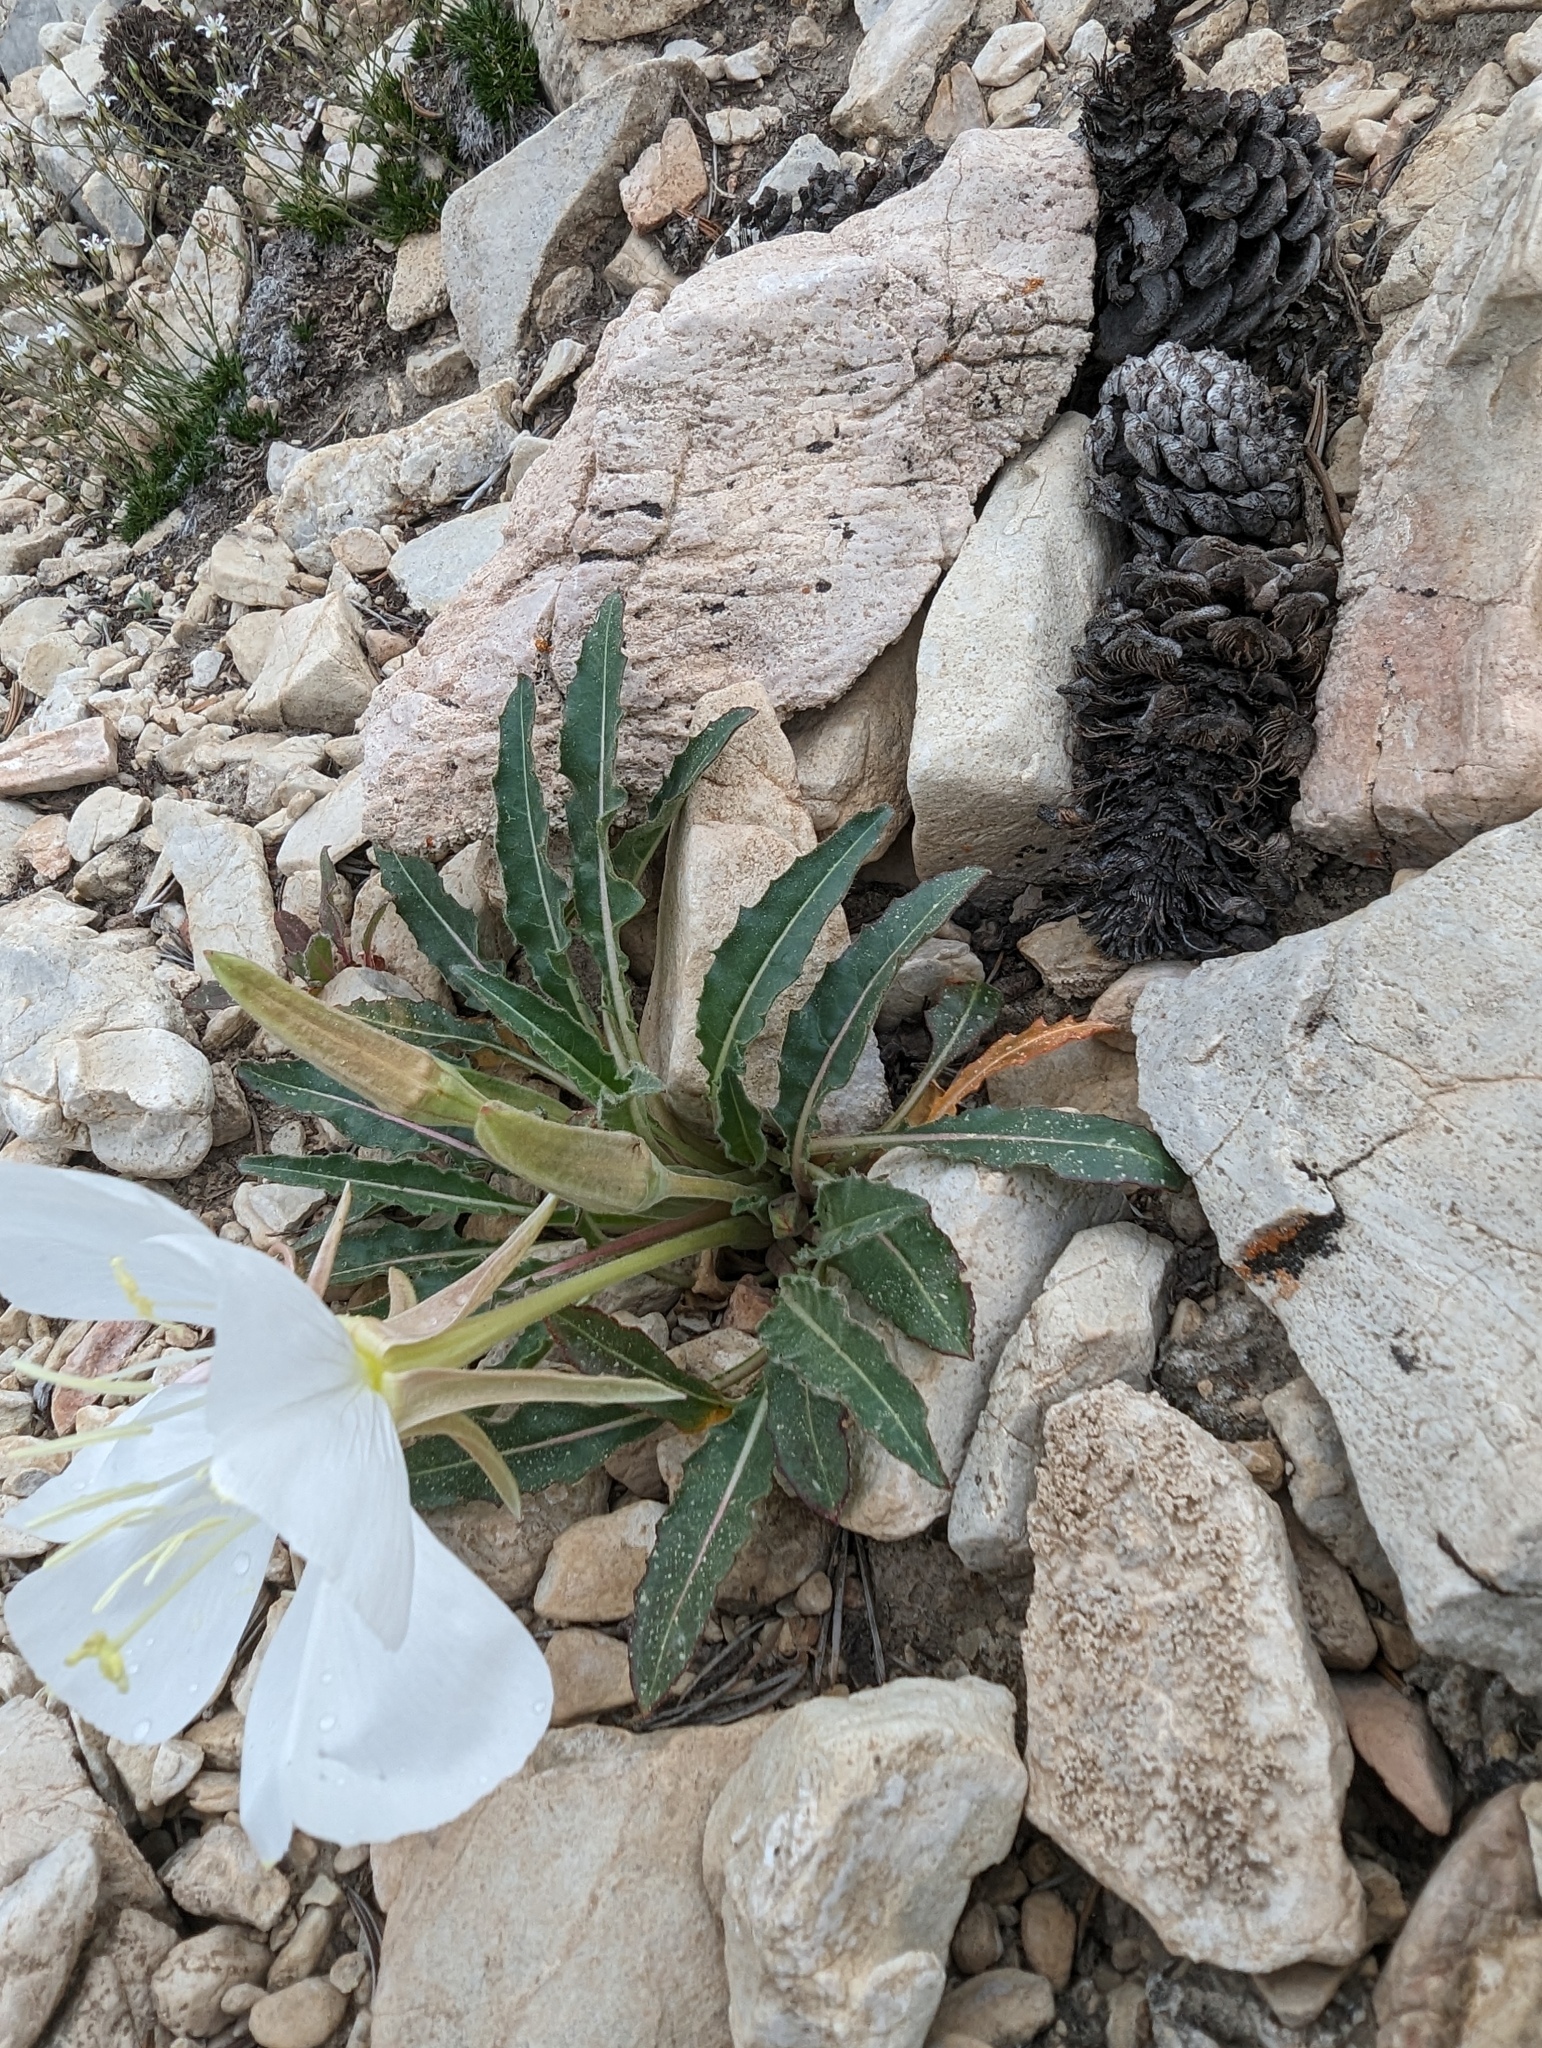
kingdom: Plantae
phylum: Tracheophyta
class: Magnoliopsida
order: Myrtales
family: Onagraceae
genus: Oenothera
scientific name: Oenothera cespitosa
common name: Tufted evening-primrose
